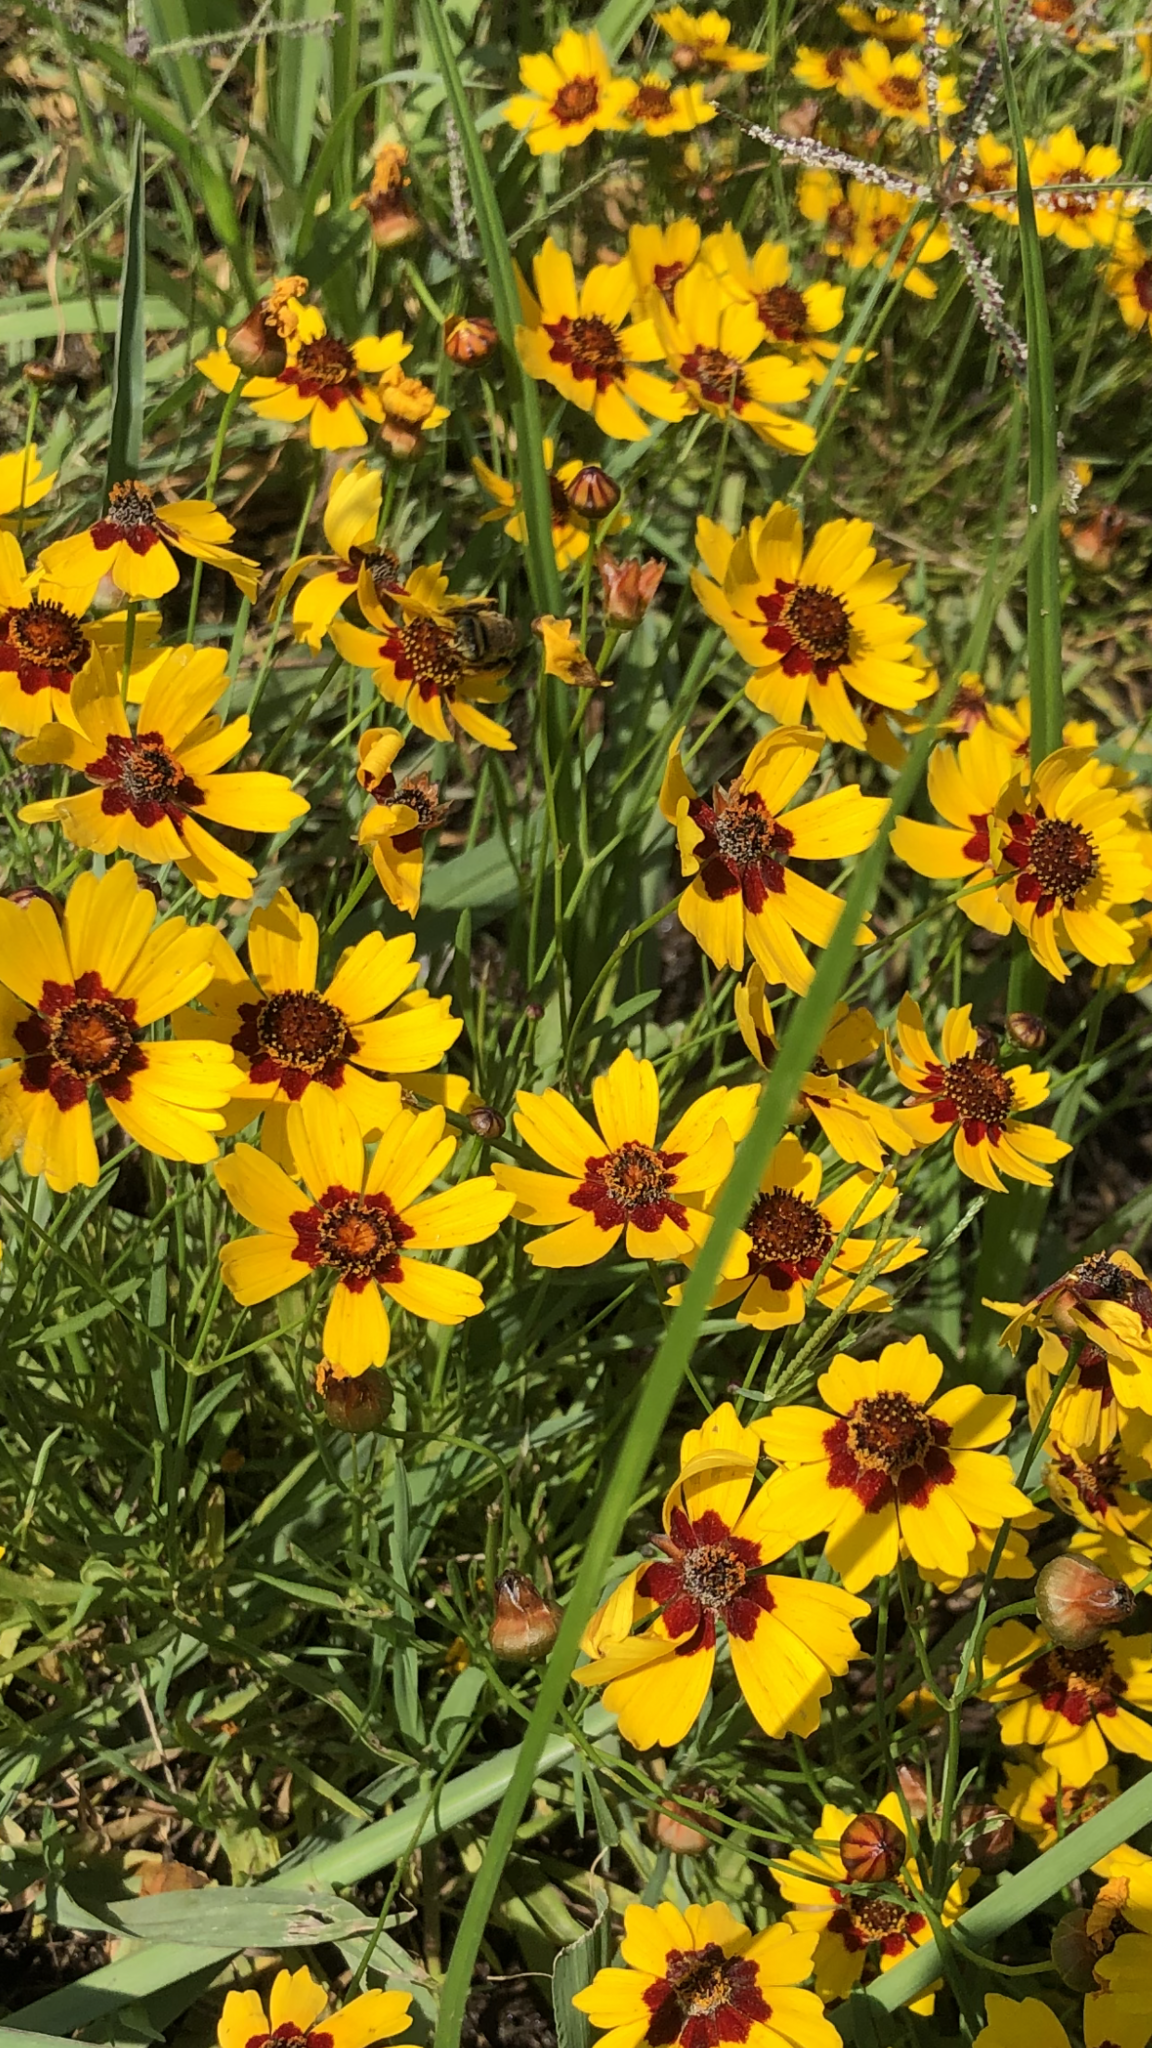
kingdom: Plantae
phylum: Tracheophyta
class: Magnoliopsida
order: Asterales
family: Asteraceae
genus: Coreopsis
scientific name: Coreopsis tinctoria
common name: Garden tickseed
